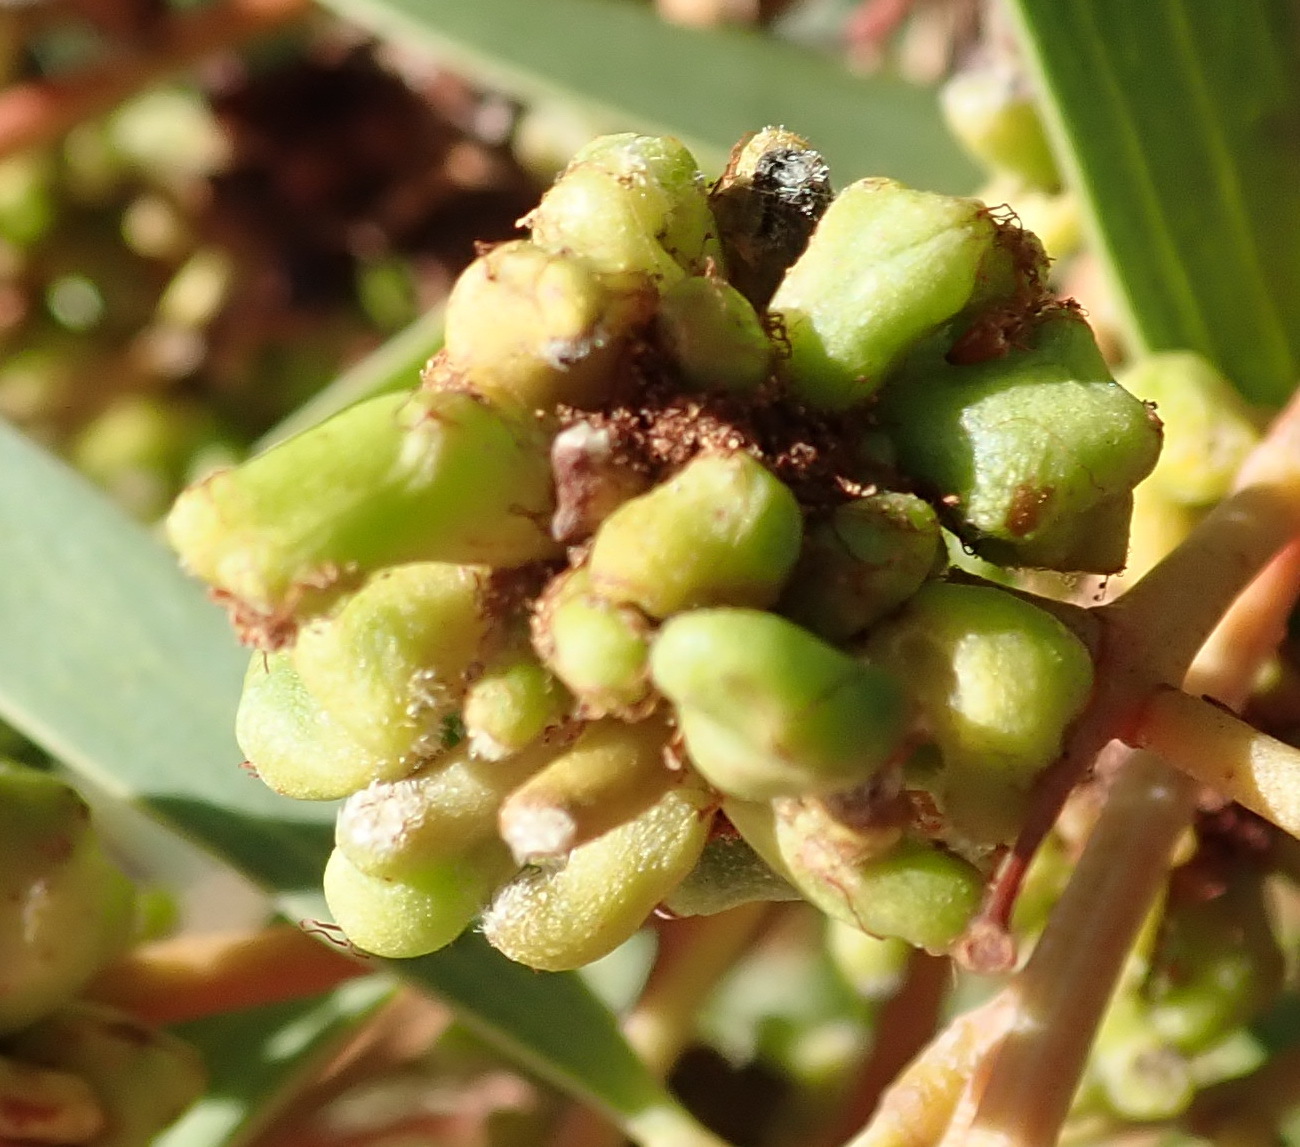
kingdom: Animalia
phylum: Arthropoda
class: Insecta
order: Diptera
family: Cecidomyiidae
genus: Dasineura
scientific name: Dasineura dielsi
